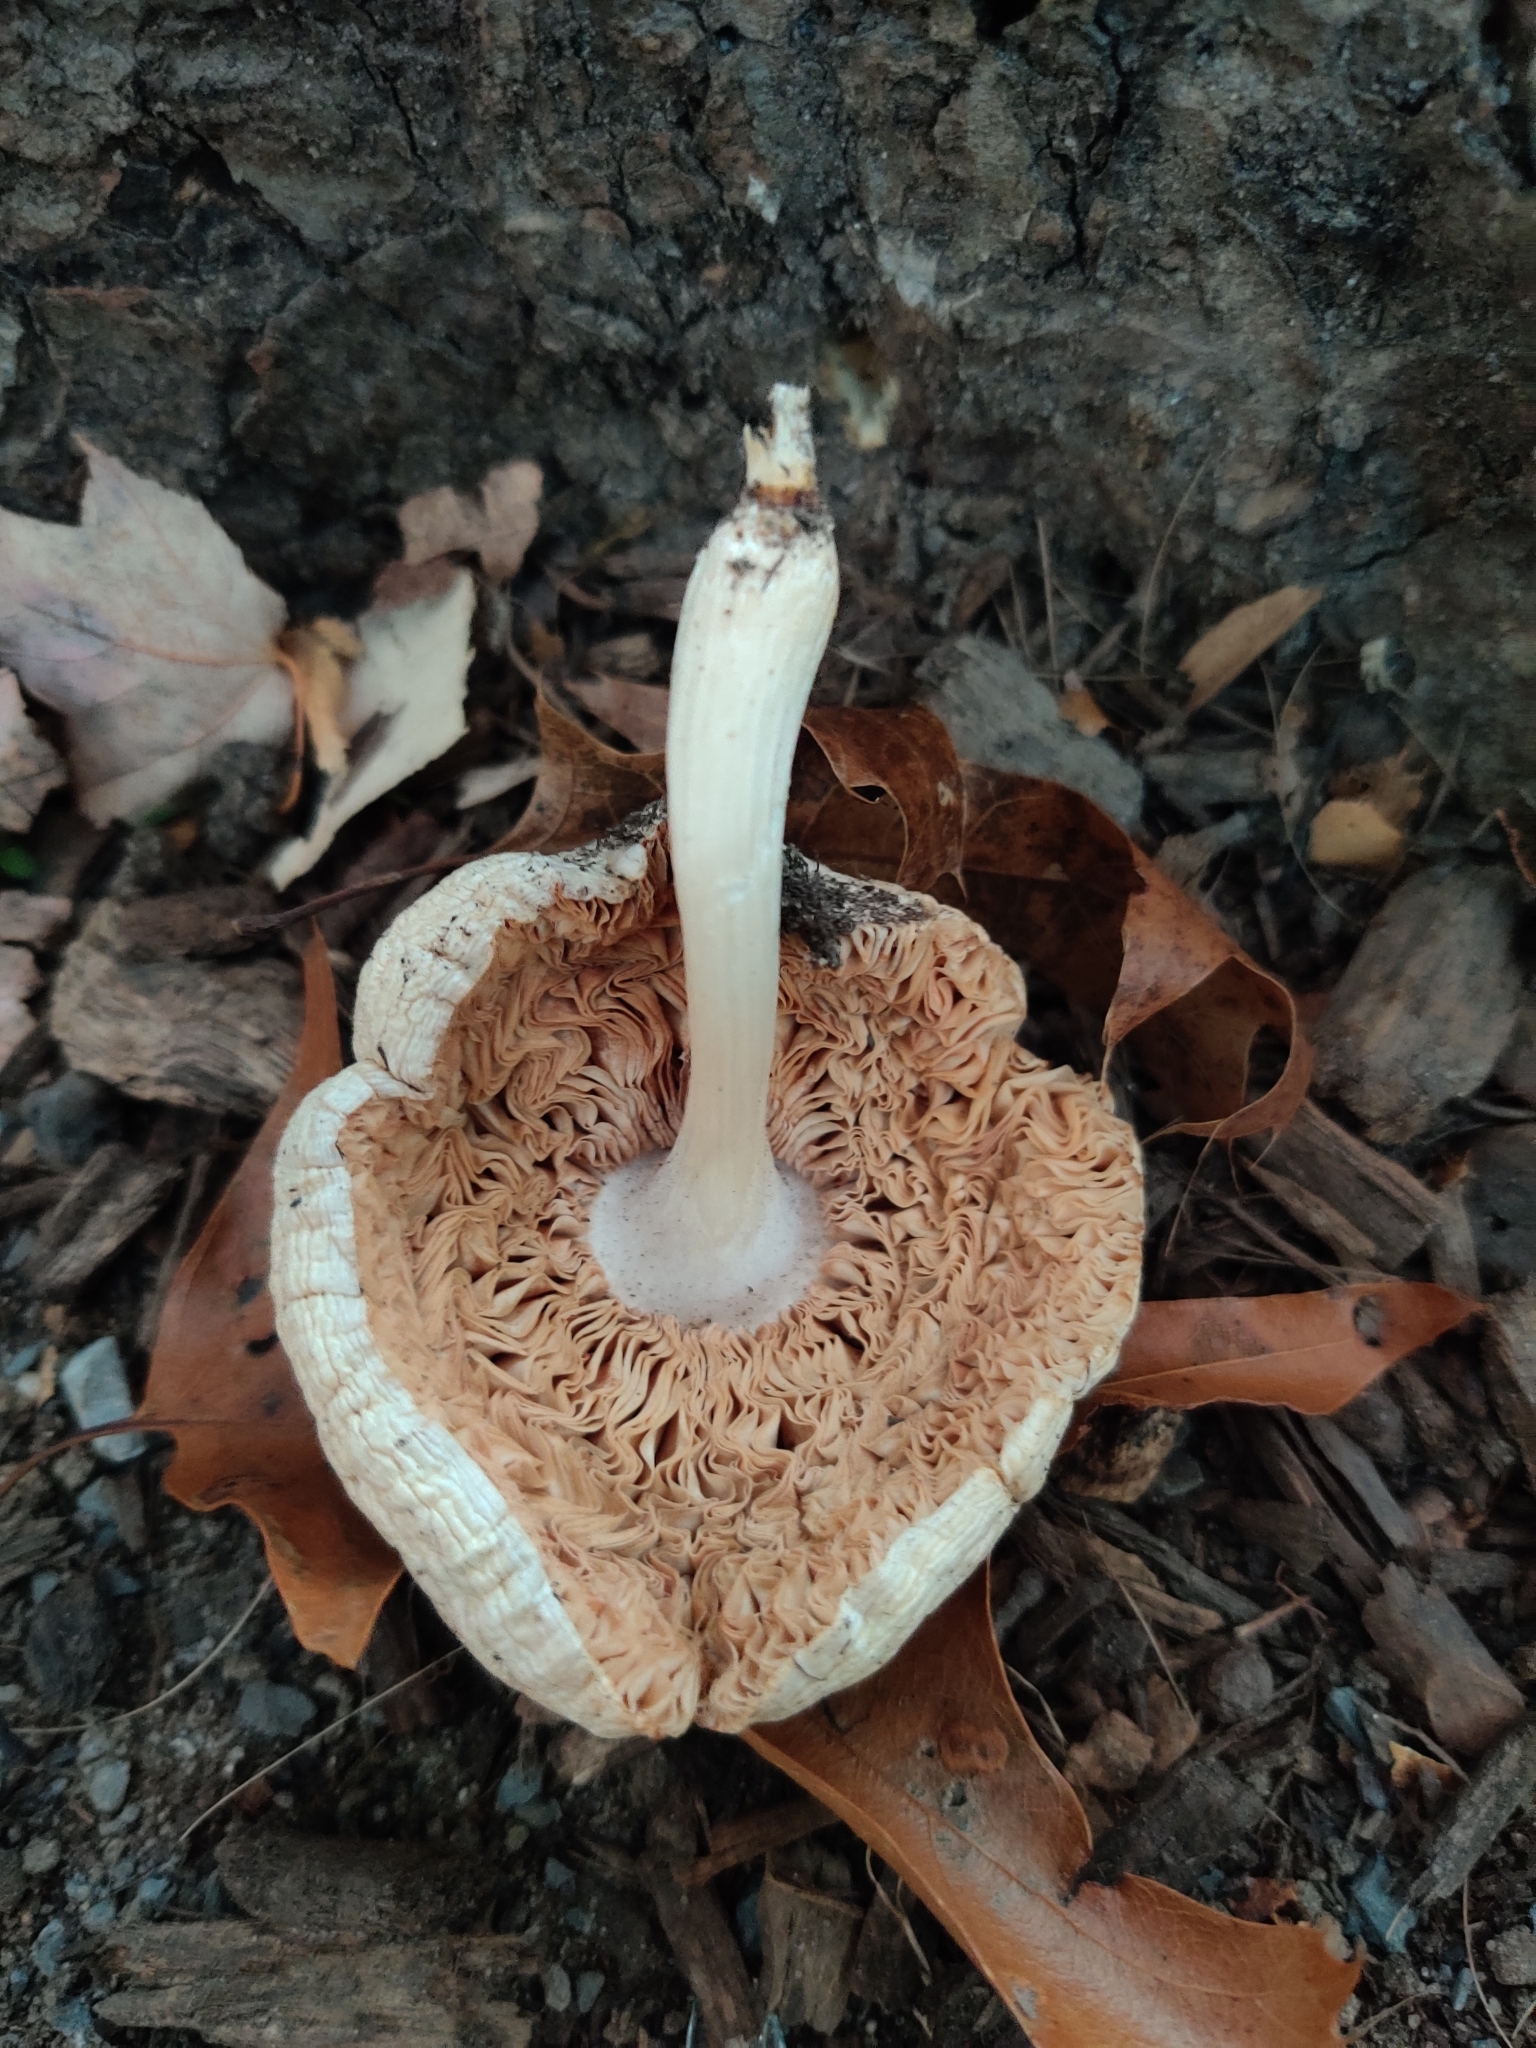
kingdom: Fungi
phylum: Basidiomycota
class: Agaricomycetes
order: Agaricales
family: Pluteaceae
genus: Pluteus
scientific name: Pluteus petasatus
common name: Scaly shield
